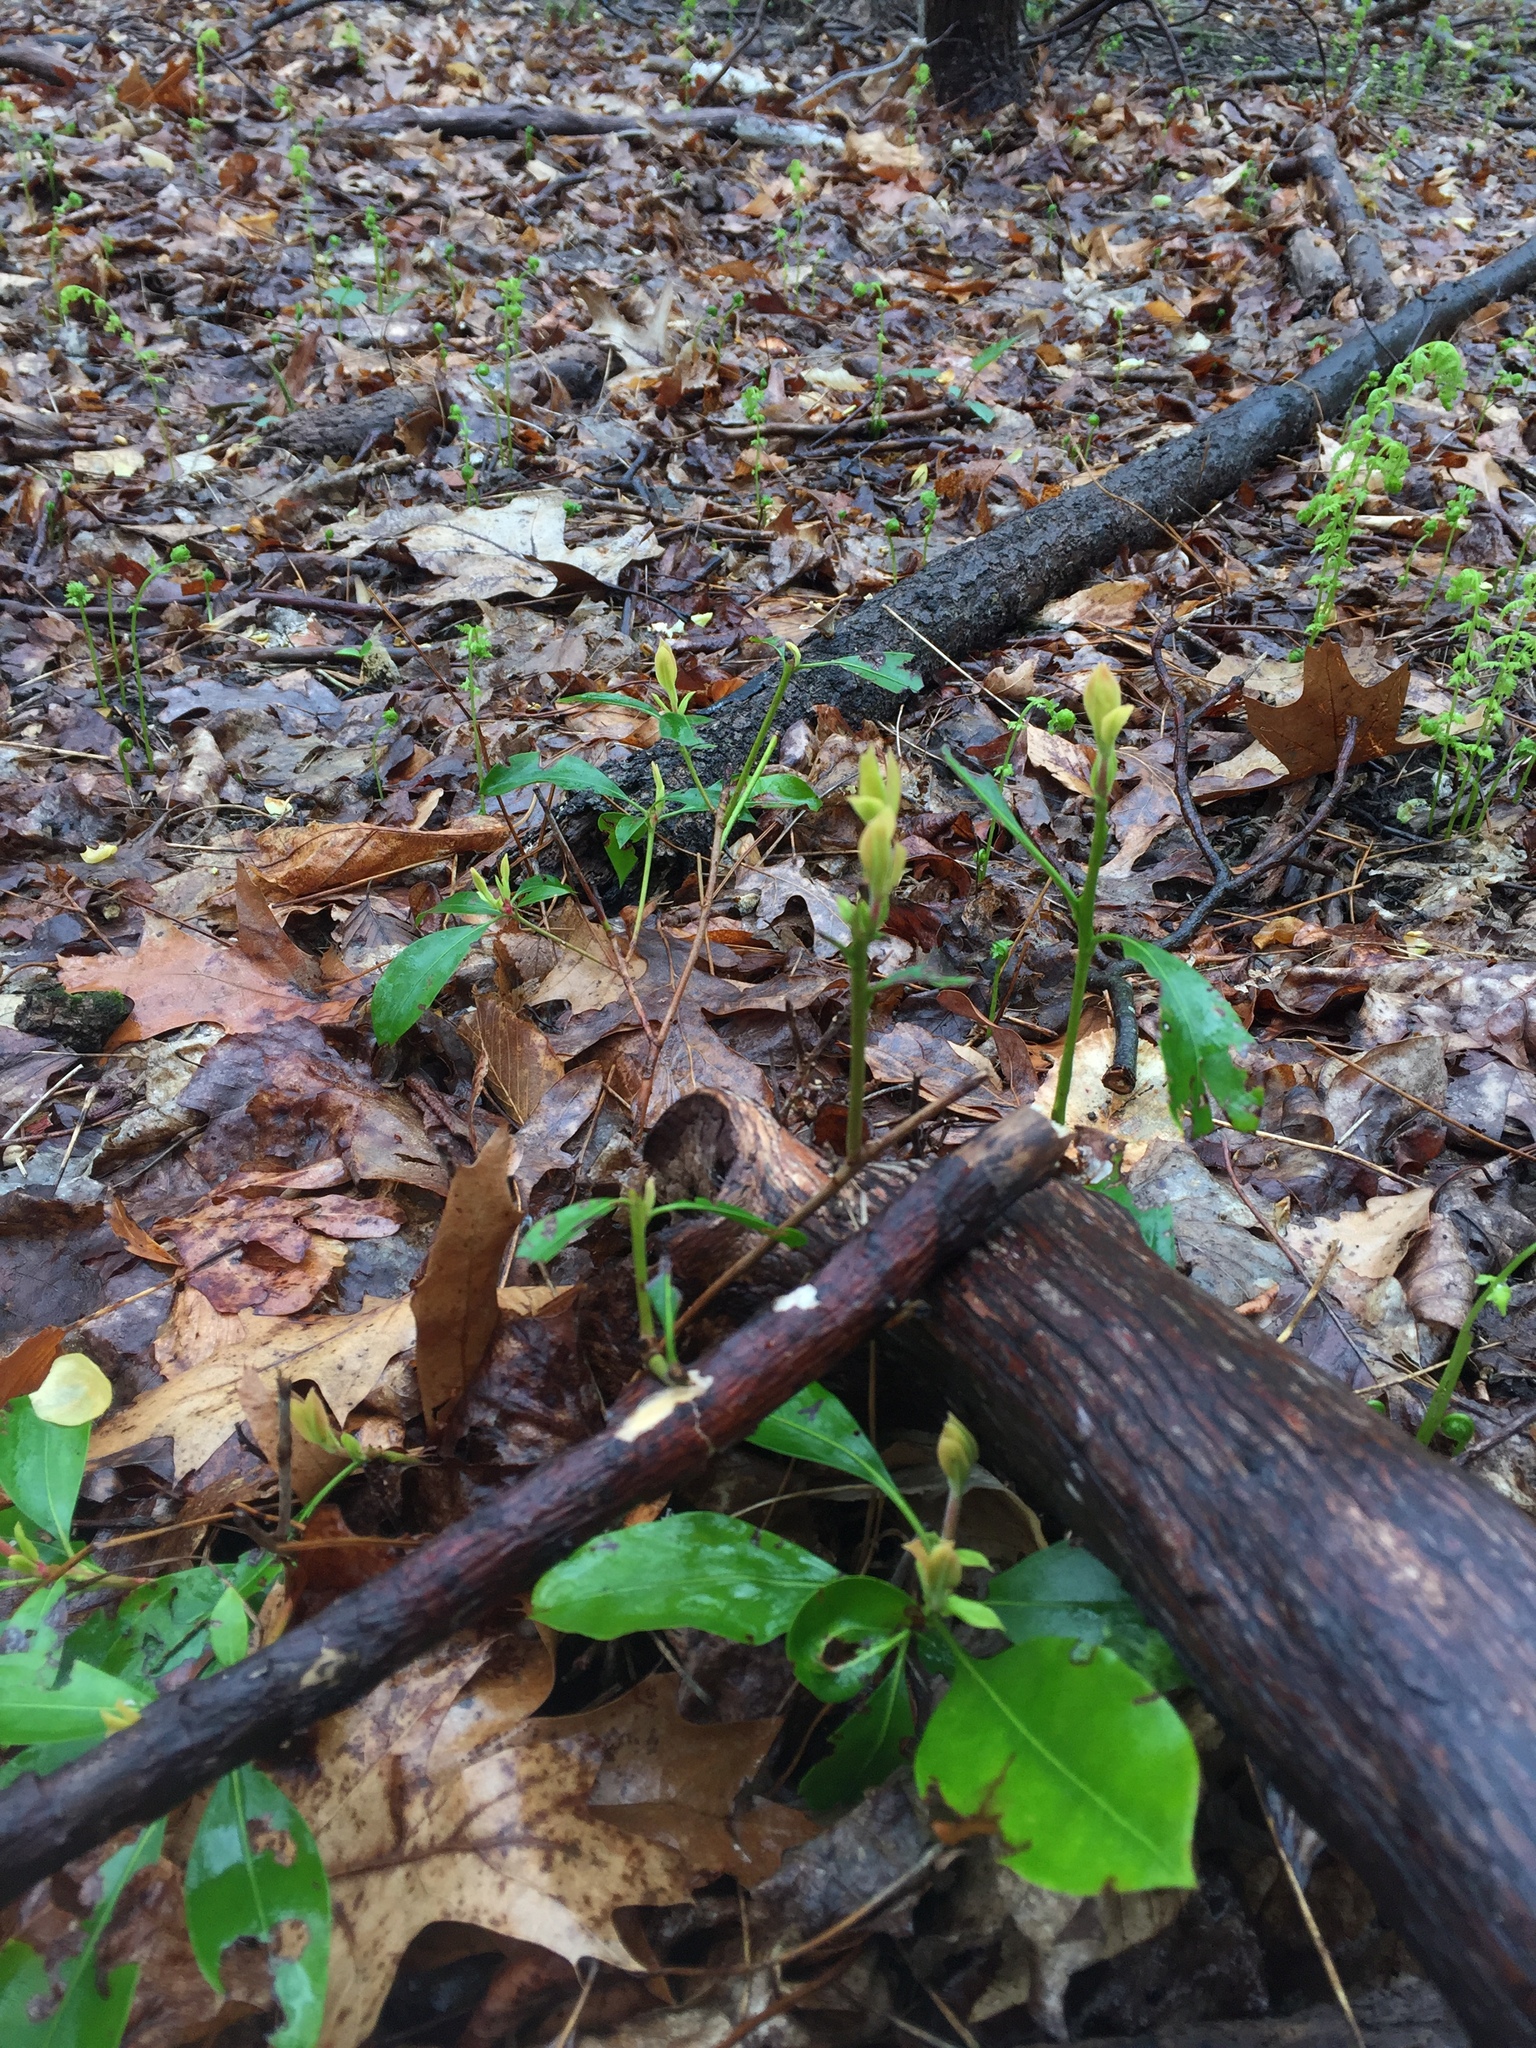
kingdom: Plantae
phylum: Tracheophyta
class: Magnoliopsida
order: Ericales
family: Ericaceae
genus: Kalmia
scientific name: Kalmia latifolia
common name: Mountain-laurel
